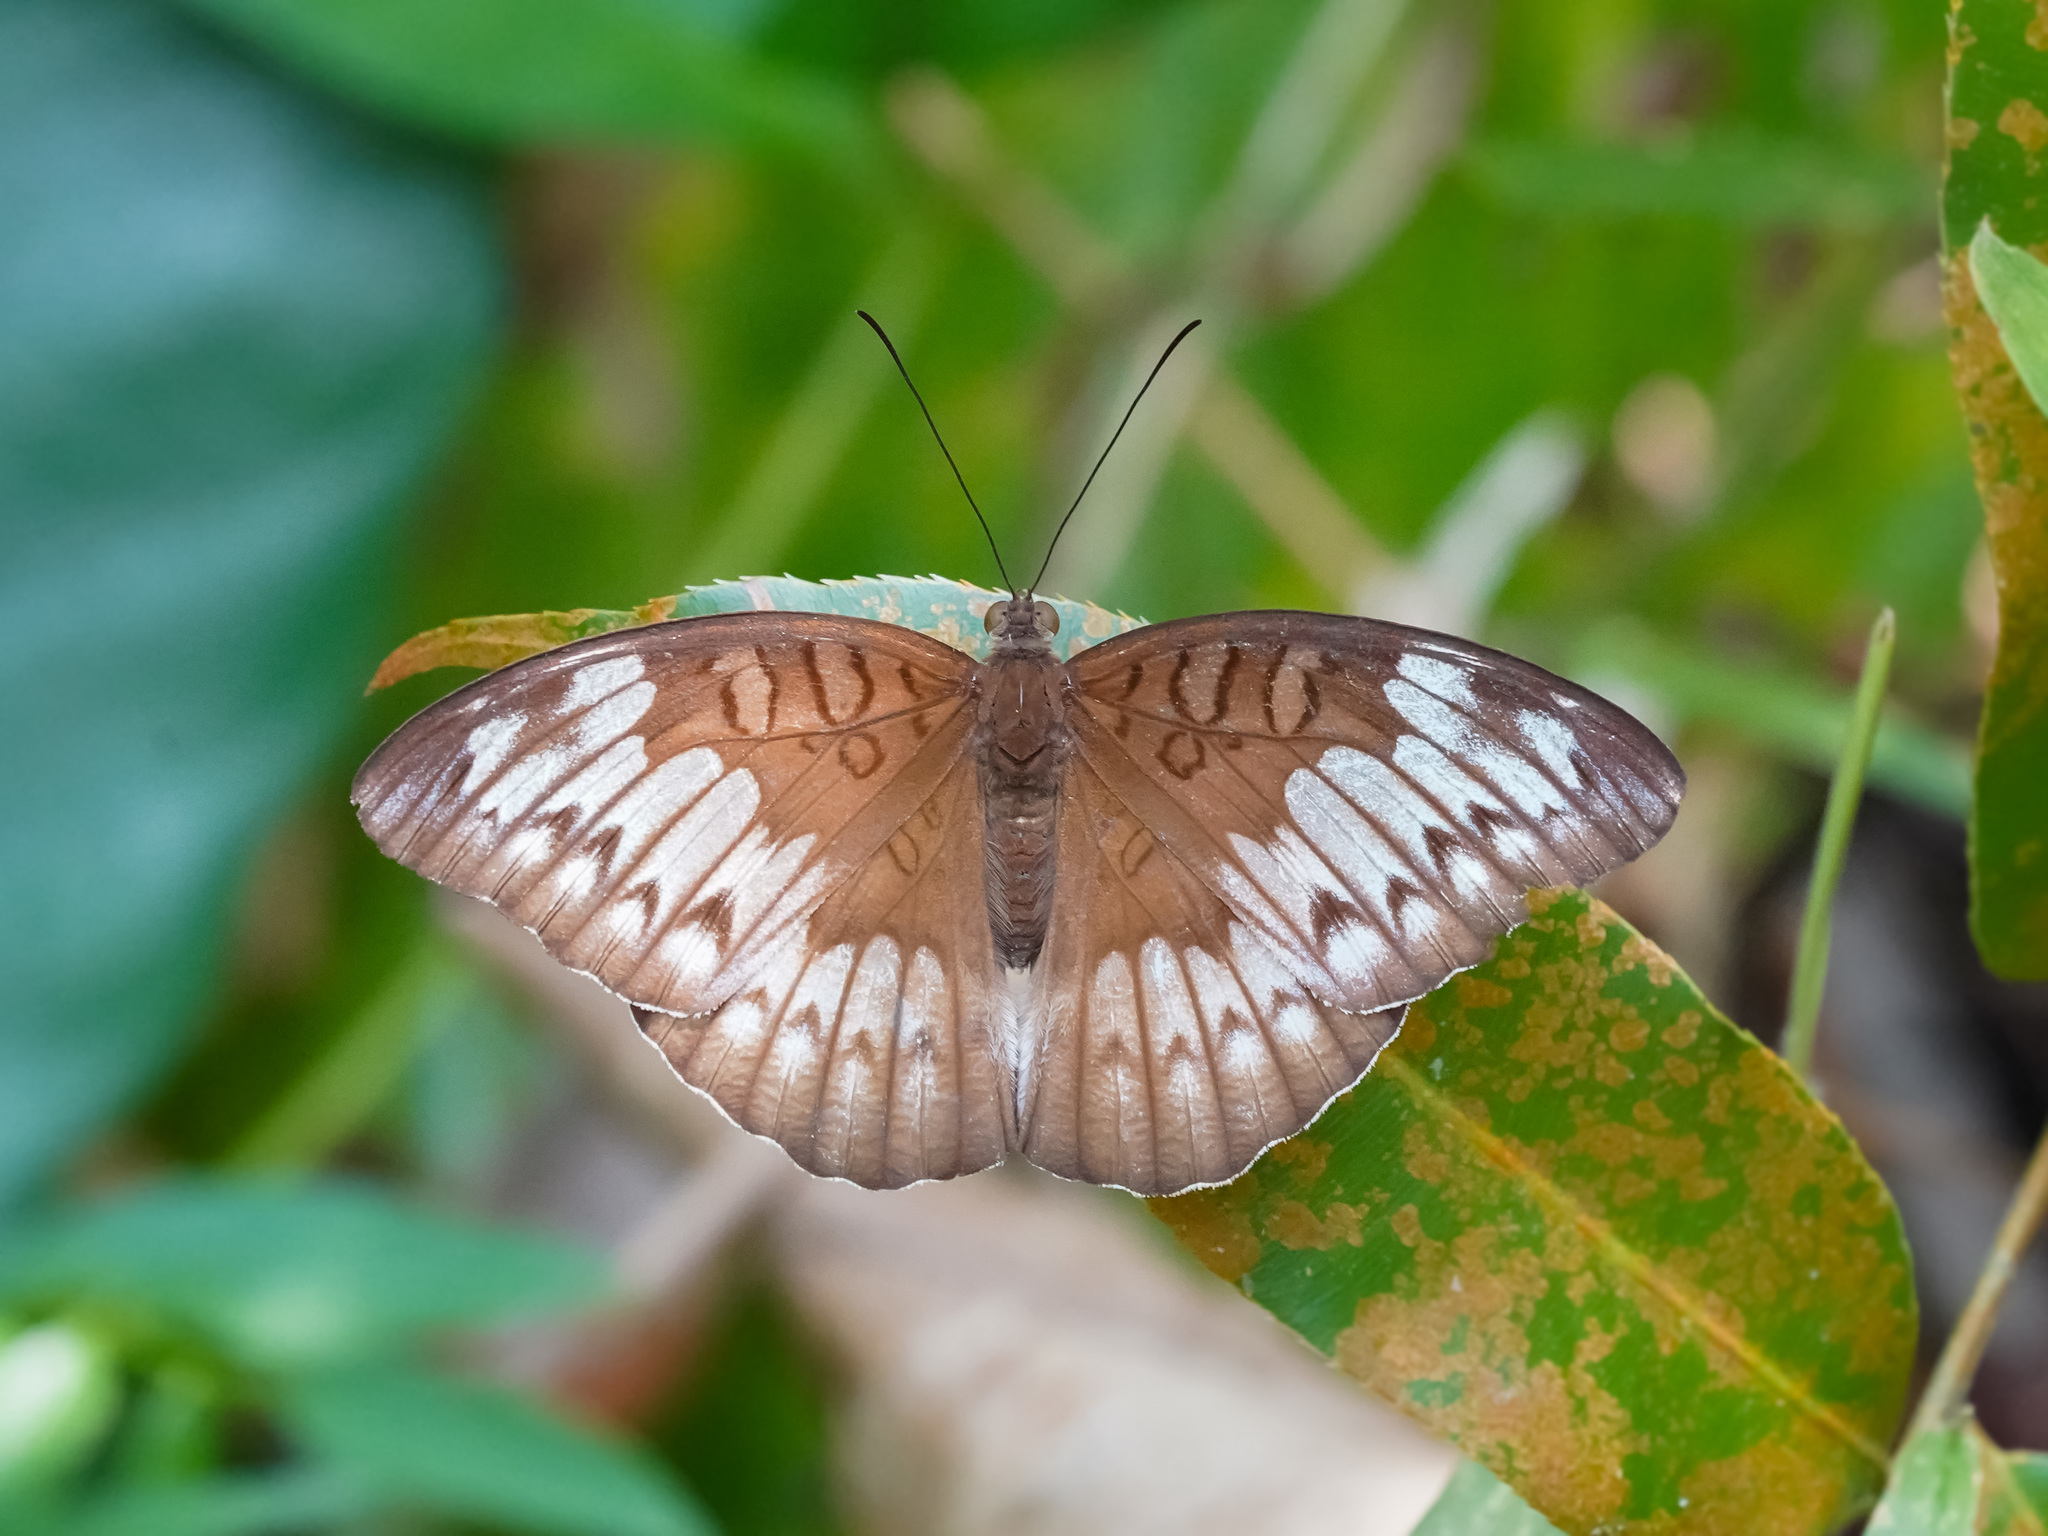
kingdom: Animalia
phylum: Arthropoda
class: Insecta
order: Lepidoptera
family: Nymphalidae
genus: Tanaecia
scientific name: Tanaecia iapis
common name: Horsfield's baron
